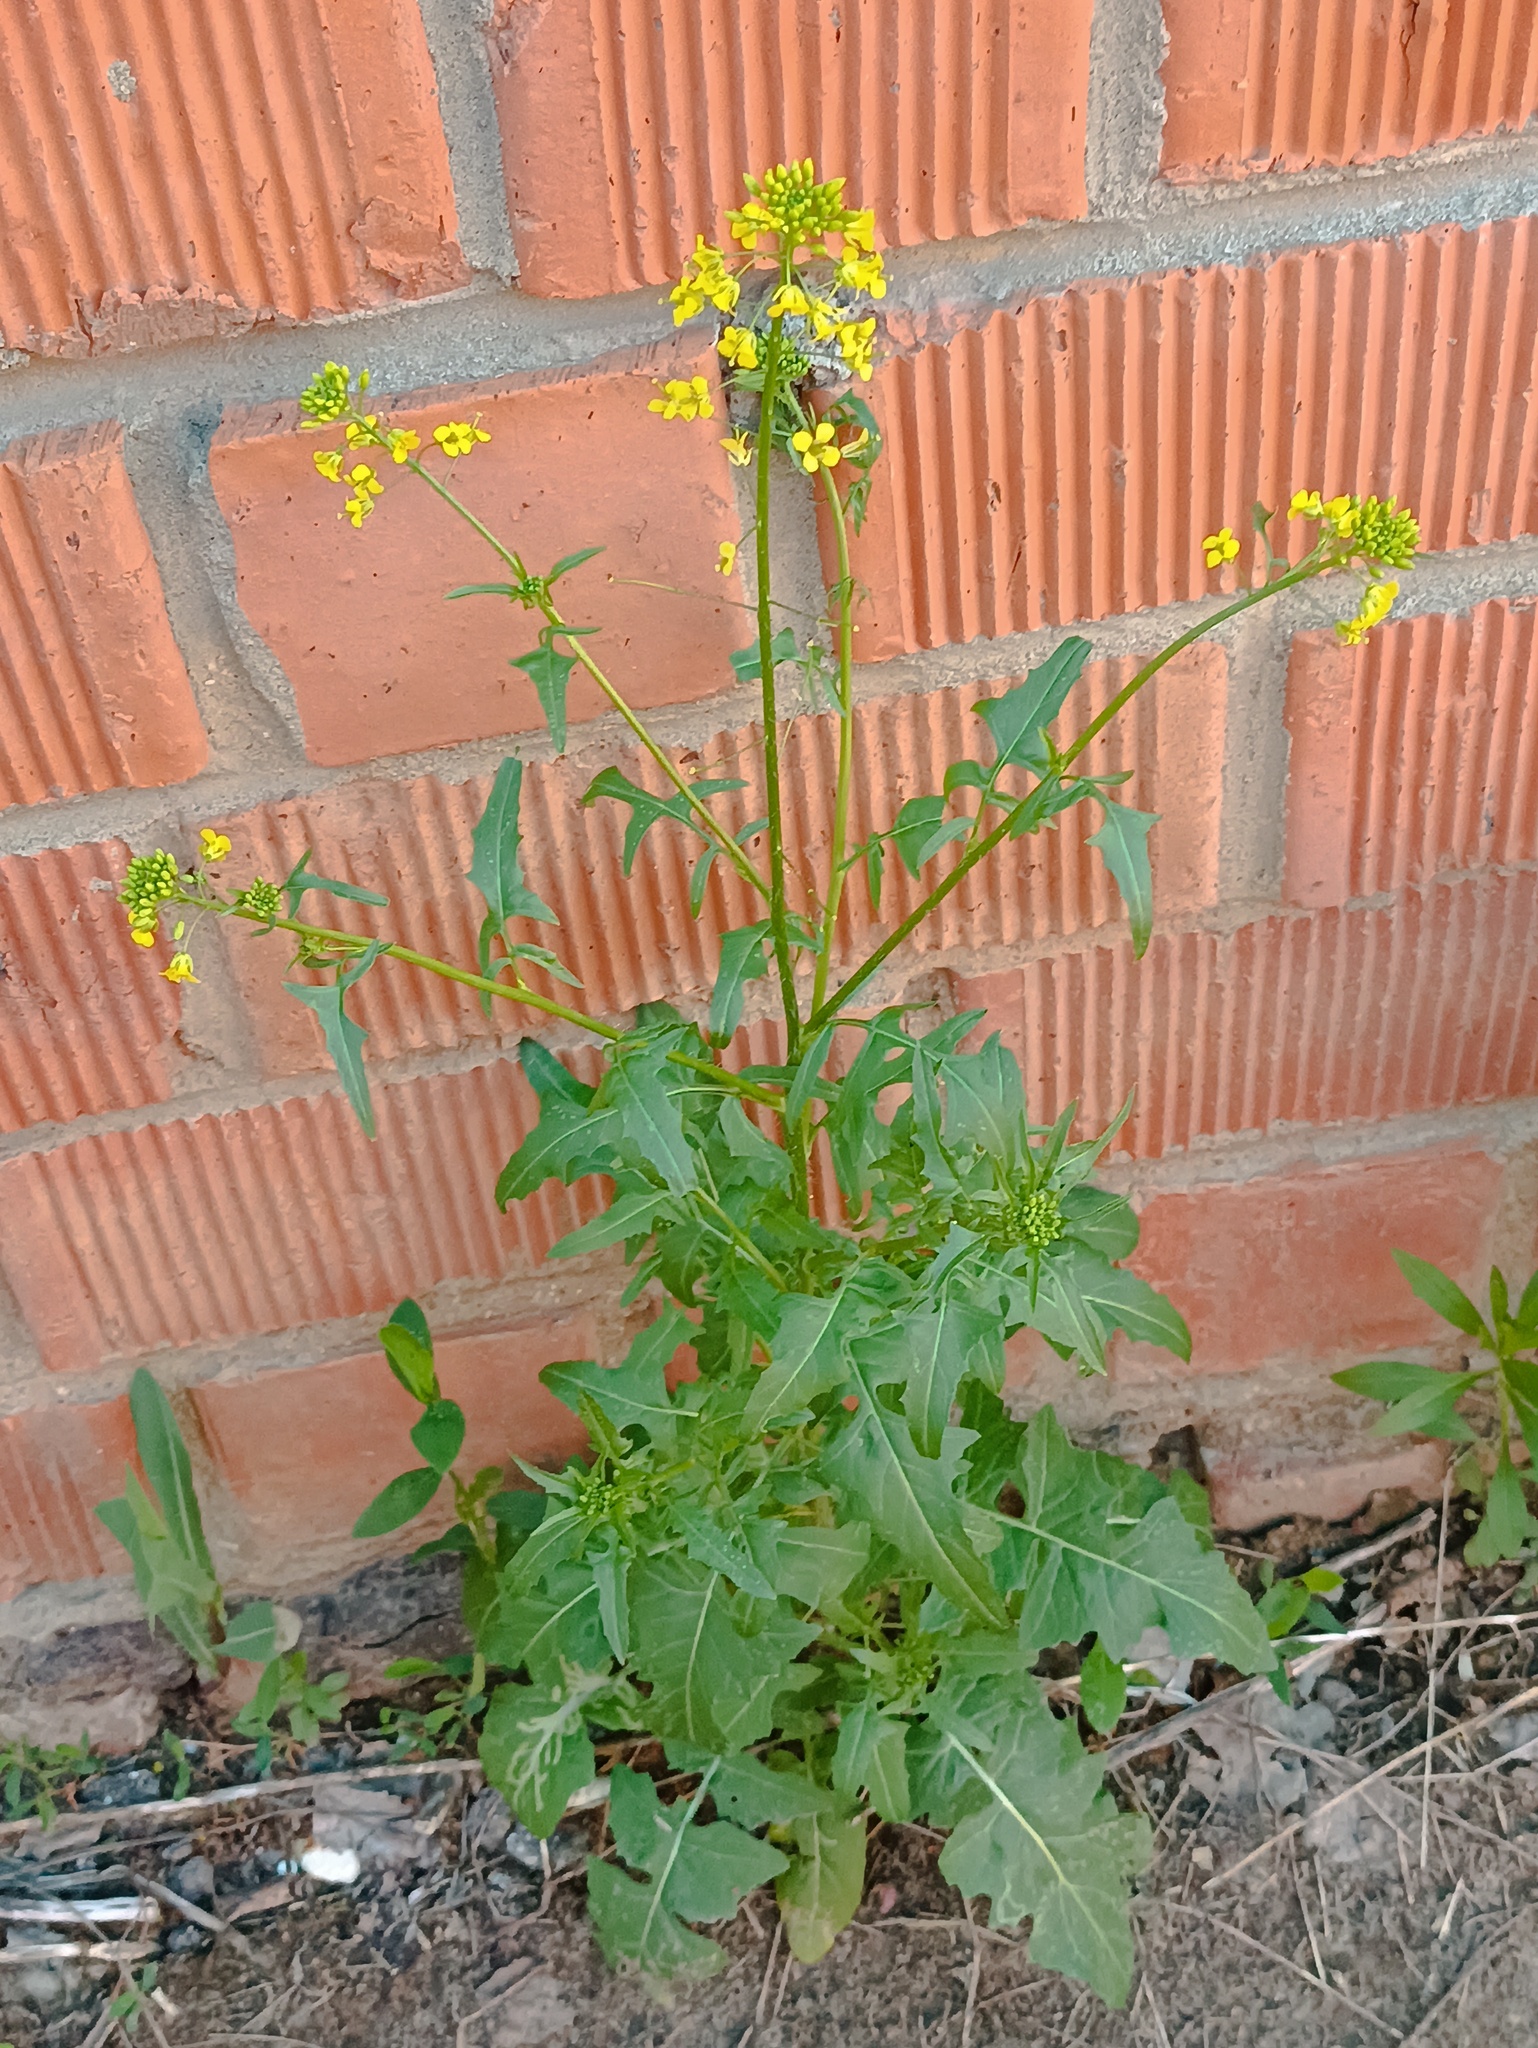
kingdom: Plantae
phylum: Tracheophyta
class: Magnoliopsida
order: Brassicales
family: Brassicaceae
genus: Sisymbrium
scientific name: Sisymbrium loeselii
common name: False london-rocket
